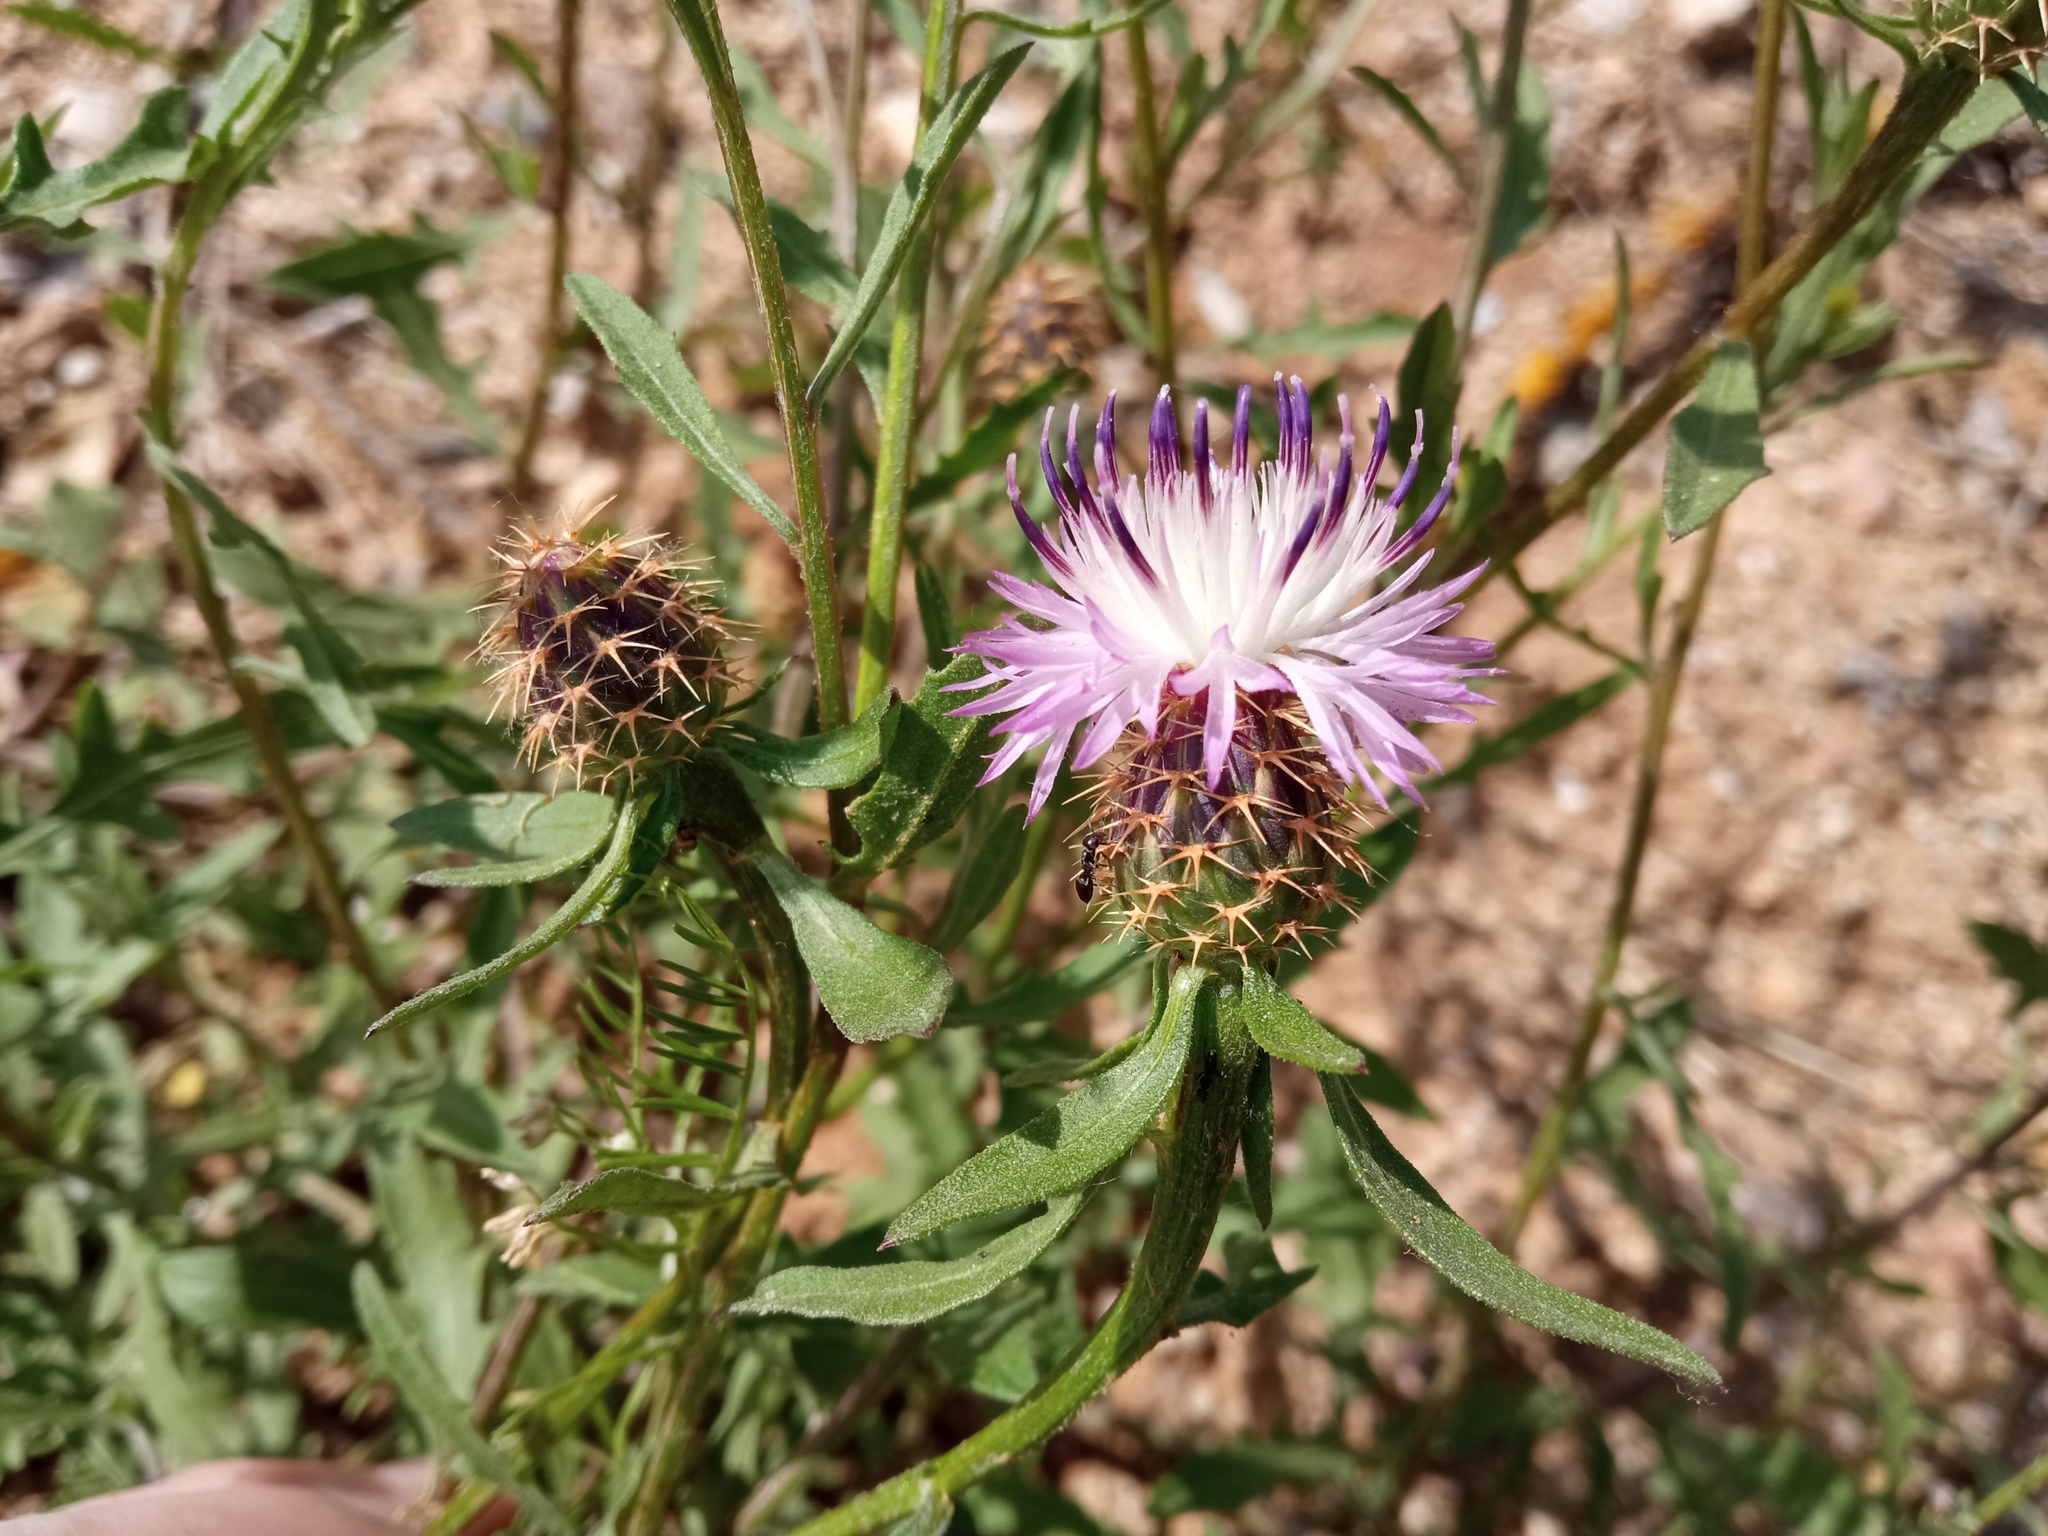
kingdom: Plantae
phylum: Tracheophyta
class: Magnoliopsida
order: Asterales
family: Asteraceae
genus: Centaurea
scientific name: Centaurea aspera
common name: Rough star-thistle
